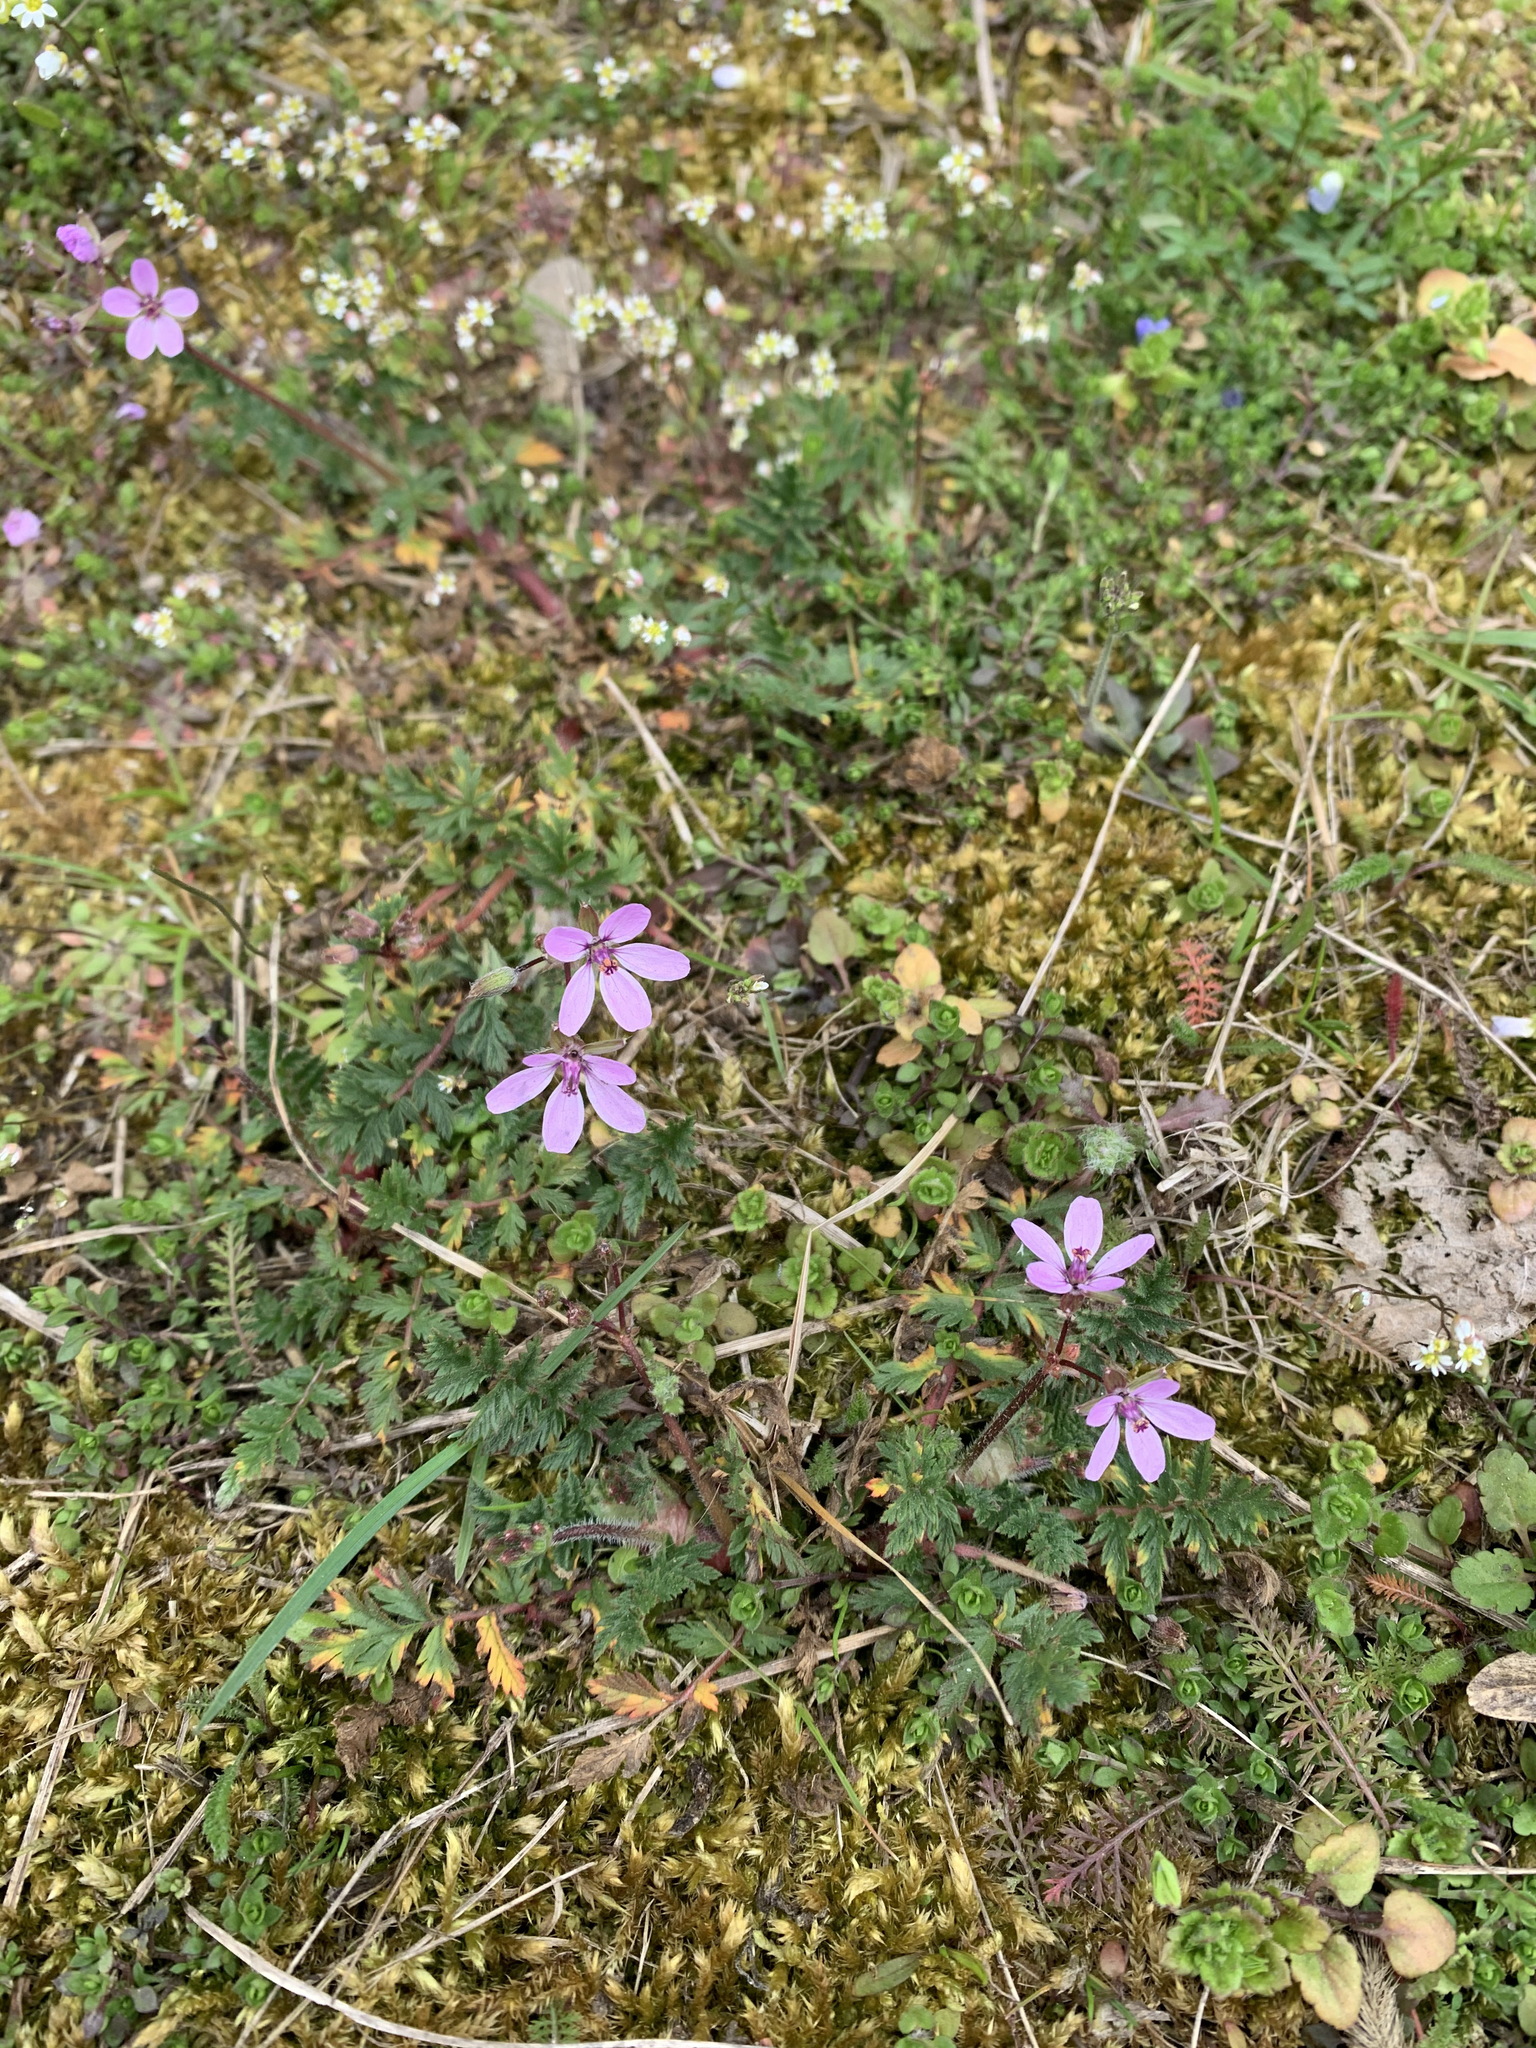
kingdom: Plantae
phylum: Tracheophyta
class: Magnoliopsida
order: Geraniales
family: Geraniaceae
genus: Erodium
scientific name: Erodium cicutarium
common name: Common stork's-bill
